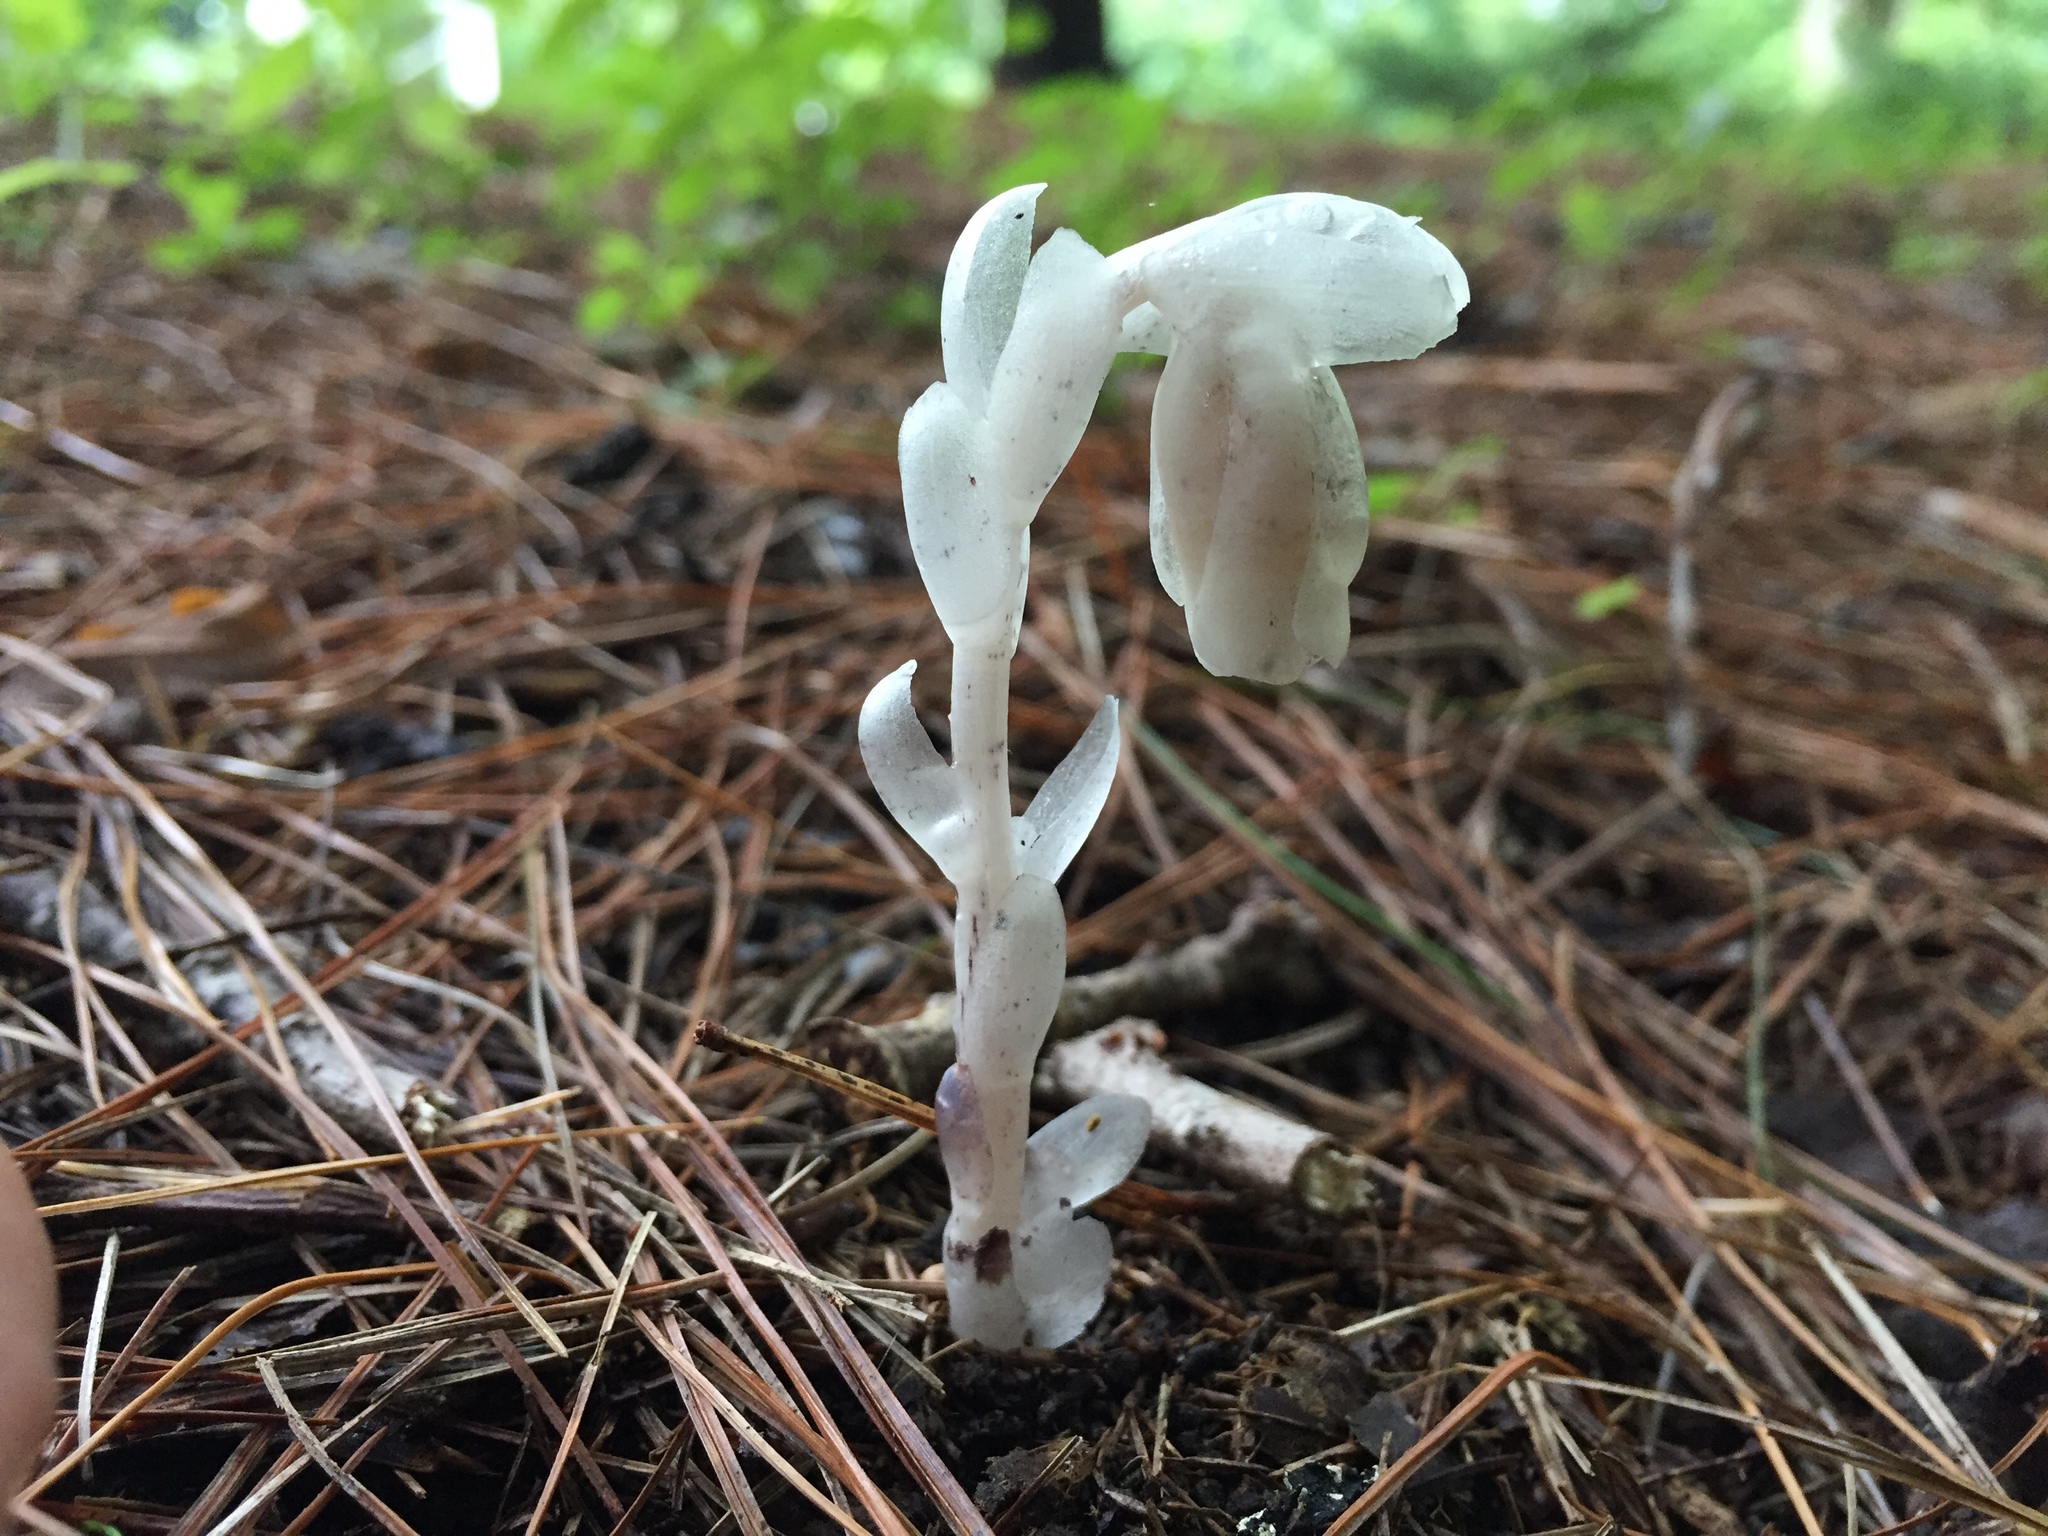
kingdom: Plantae
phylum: Tracheophyta
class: Magnoliopsida
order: Ericales
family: Ericaceae
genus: Monotropa
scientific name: Monotropa uniflora
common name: Convulsion root
